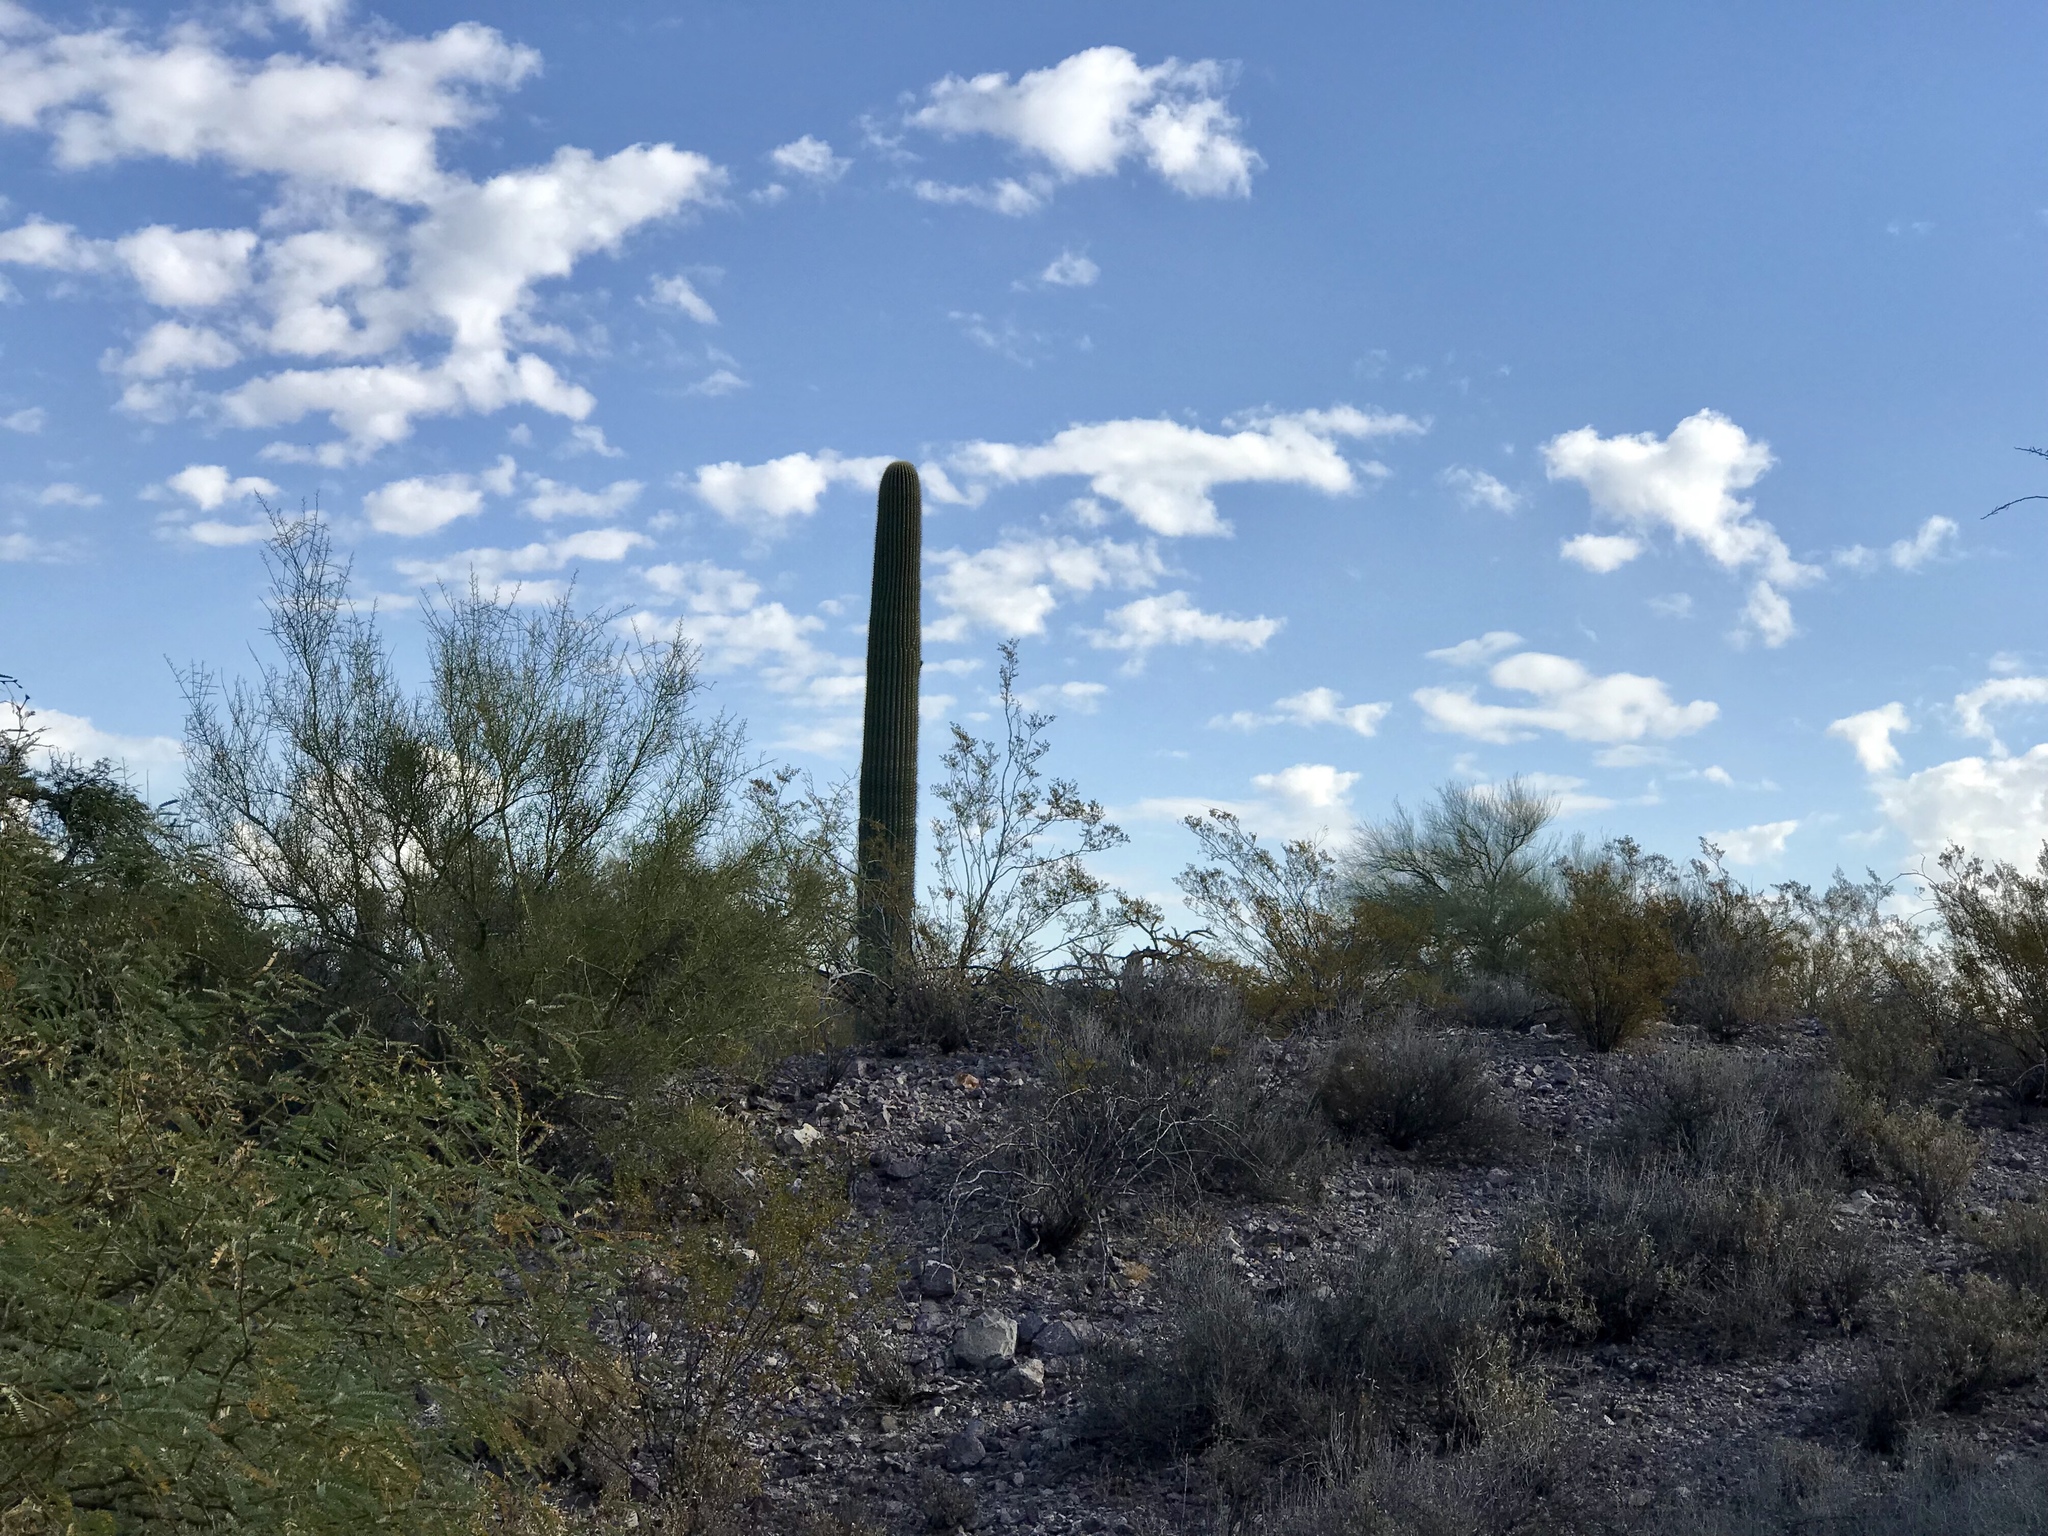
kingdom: Plantae
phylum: Tracheophyta
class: Magnoliopsida
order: Caryophyllales
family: Cactaceae
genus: Carnegiea
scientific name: Carnegiea gigantea
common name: Saguaro
